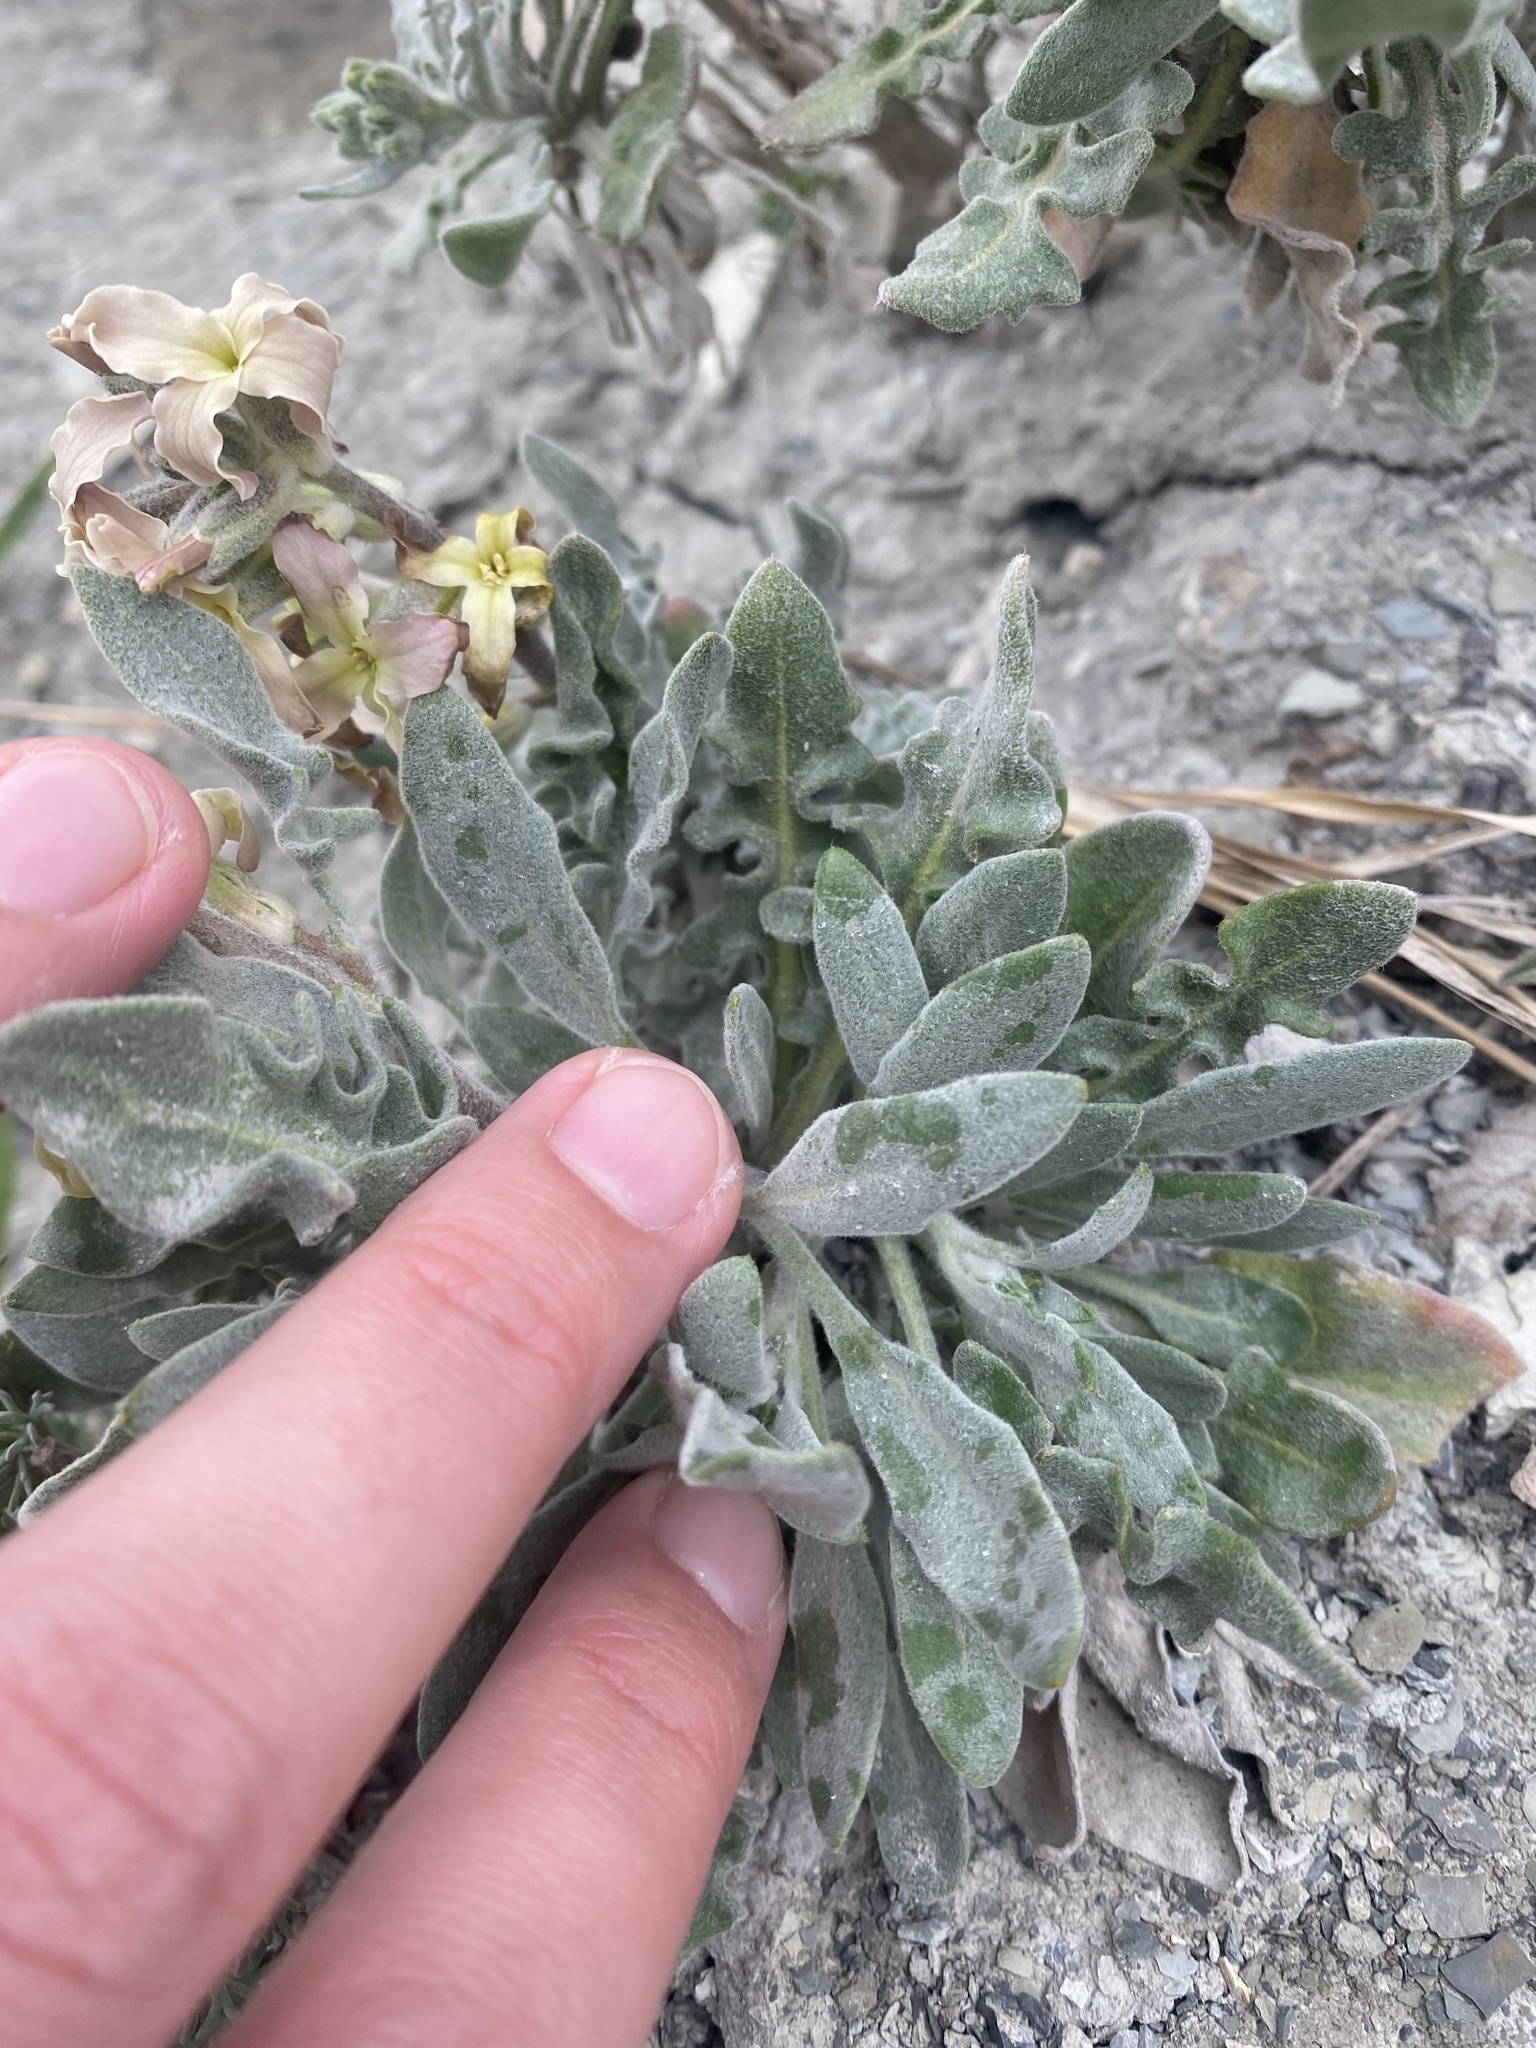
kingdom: Plantae
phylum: Tracheophyta
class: Magnoliopsida
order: Brassicales
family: Brassicaceae
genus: Matthiola
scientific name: Matthiola odoratissima
